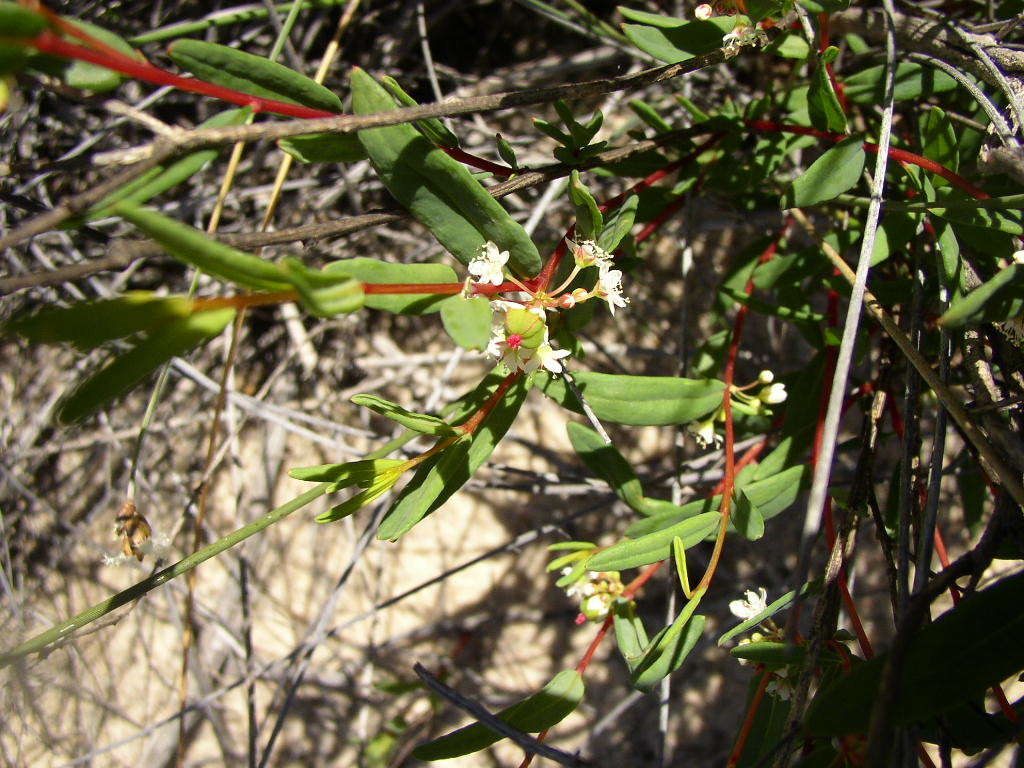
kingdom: Plantae
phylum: Tracheophyta
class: Magnoliopsida
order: Malpighiales
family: Euphorbiaceae
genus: Monotaxis
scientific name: Monotaxis bracteata
